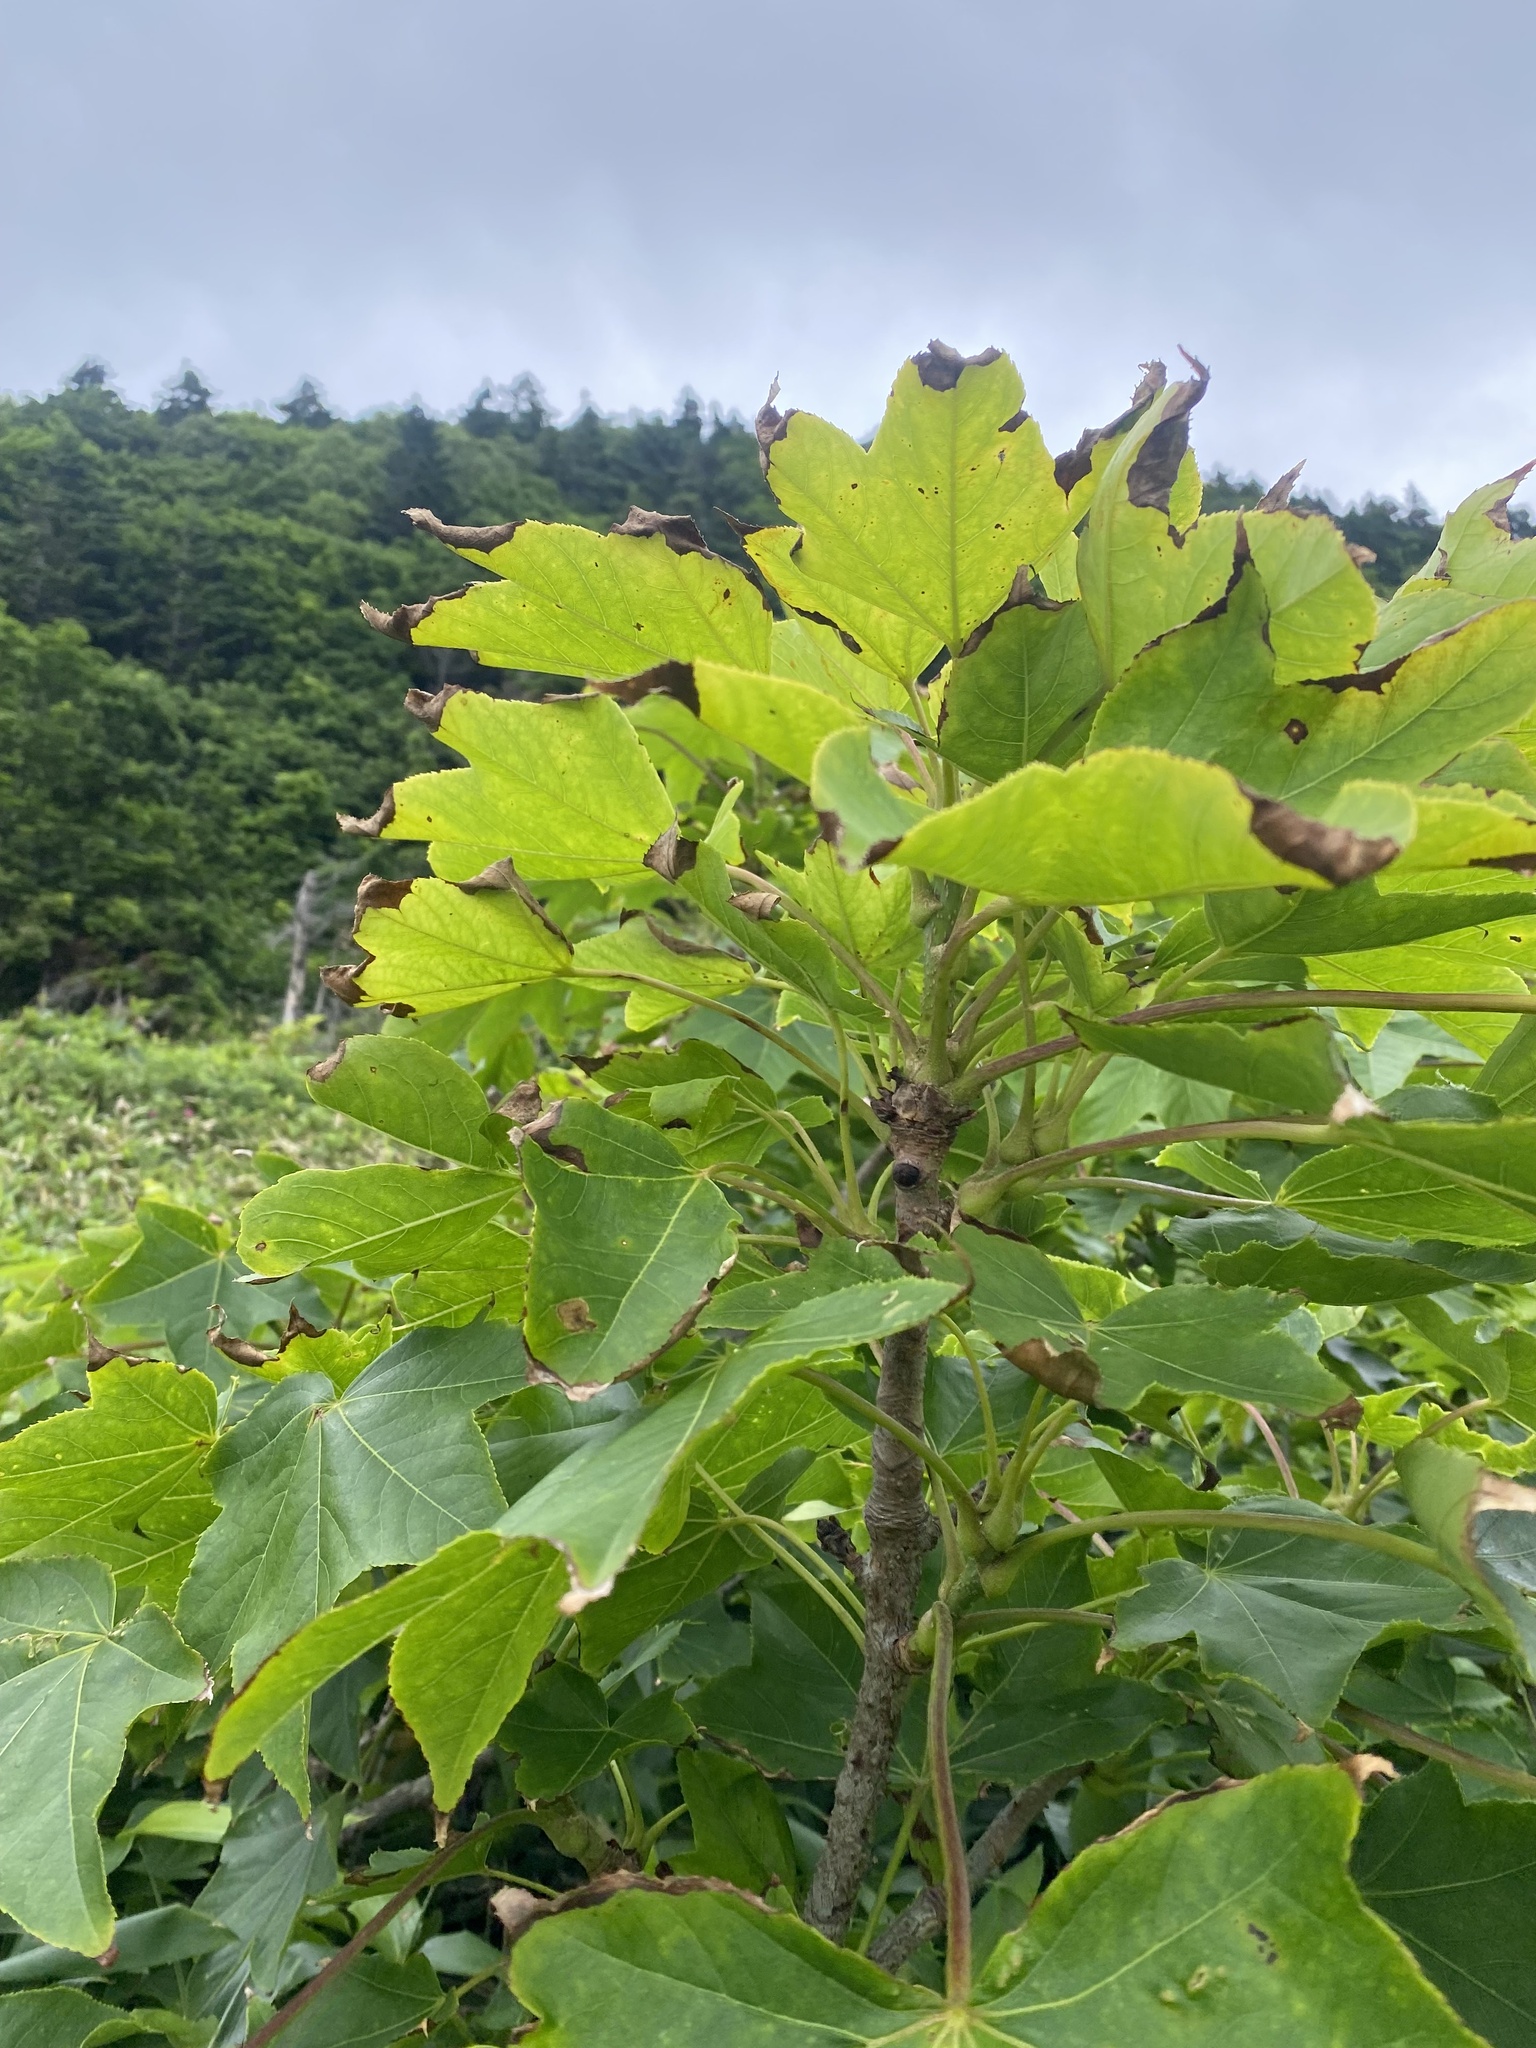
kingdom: Plantae
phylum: Tracheophyta
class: Magnoliopsida
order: Apiales
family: Araliaceae
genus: Kalopanax
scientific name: Kalopanax septemlobus
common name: Castor aralia
